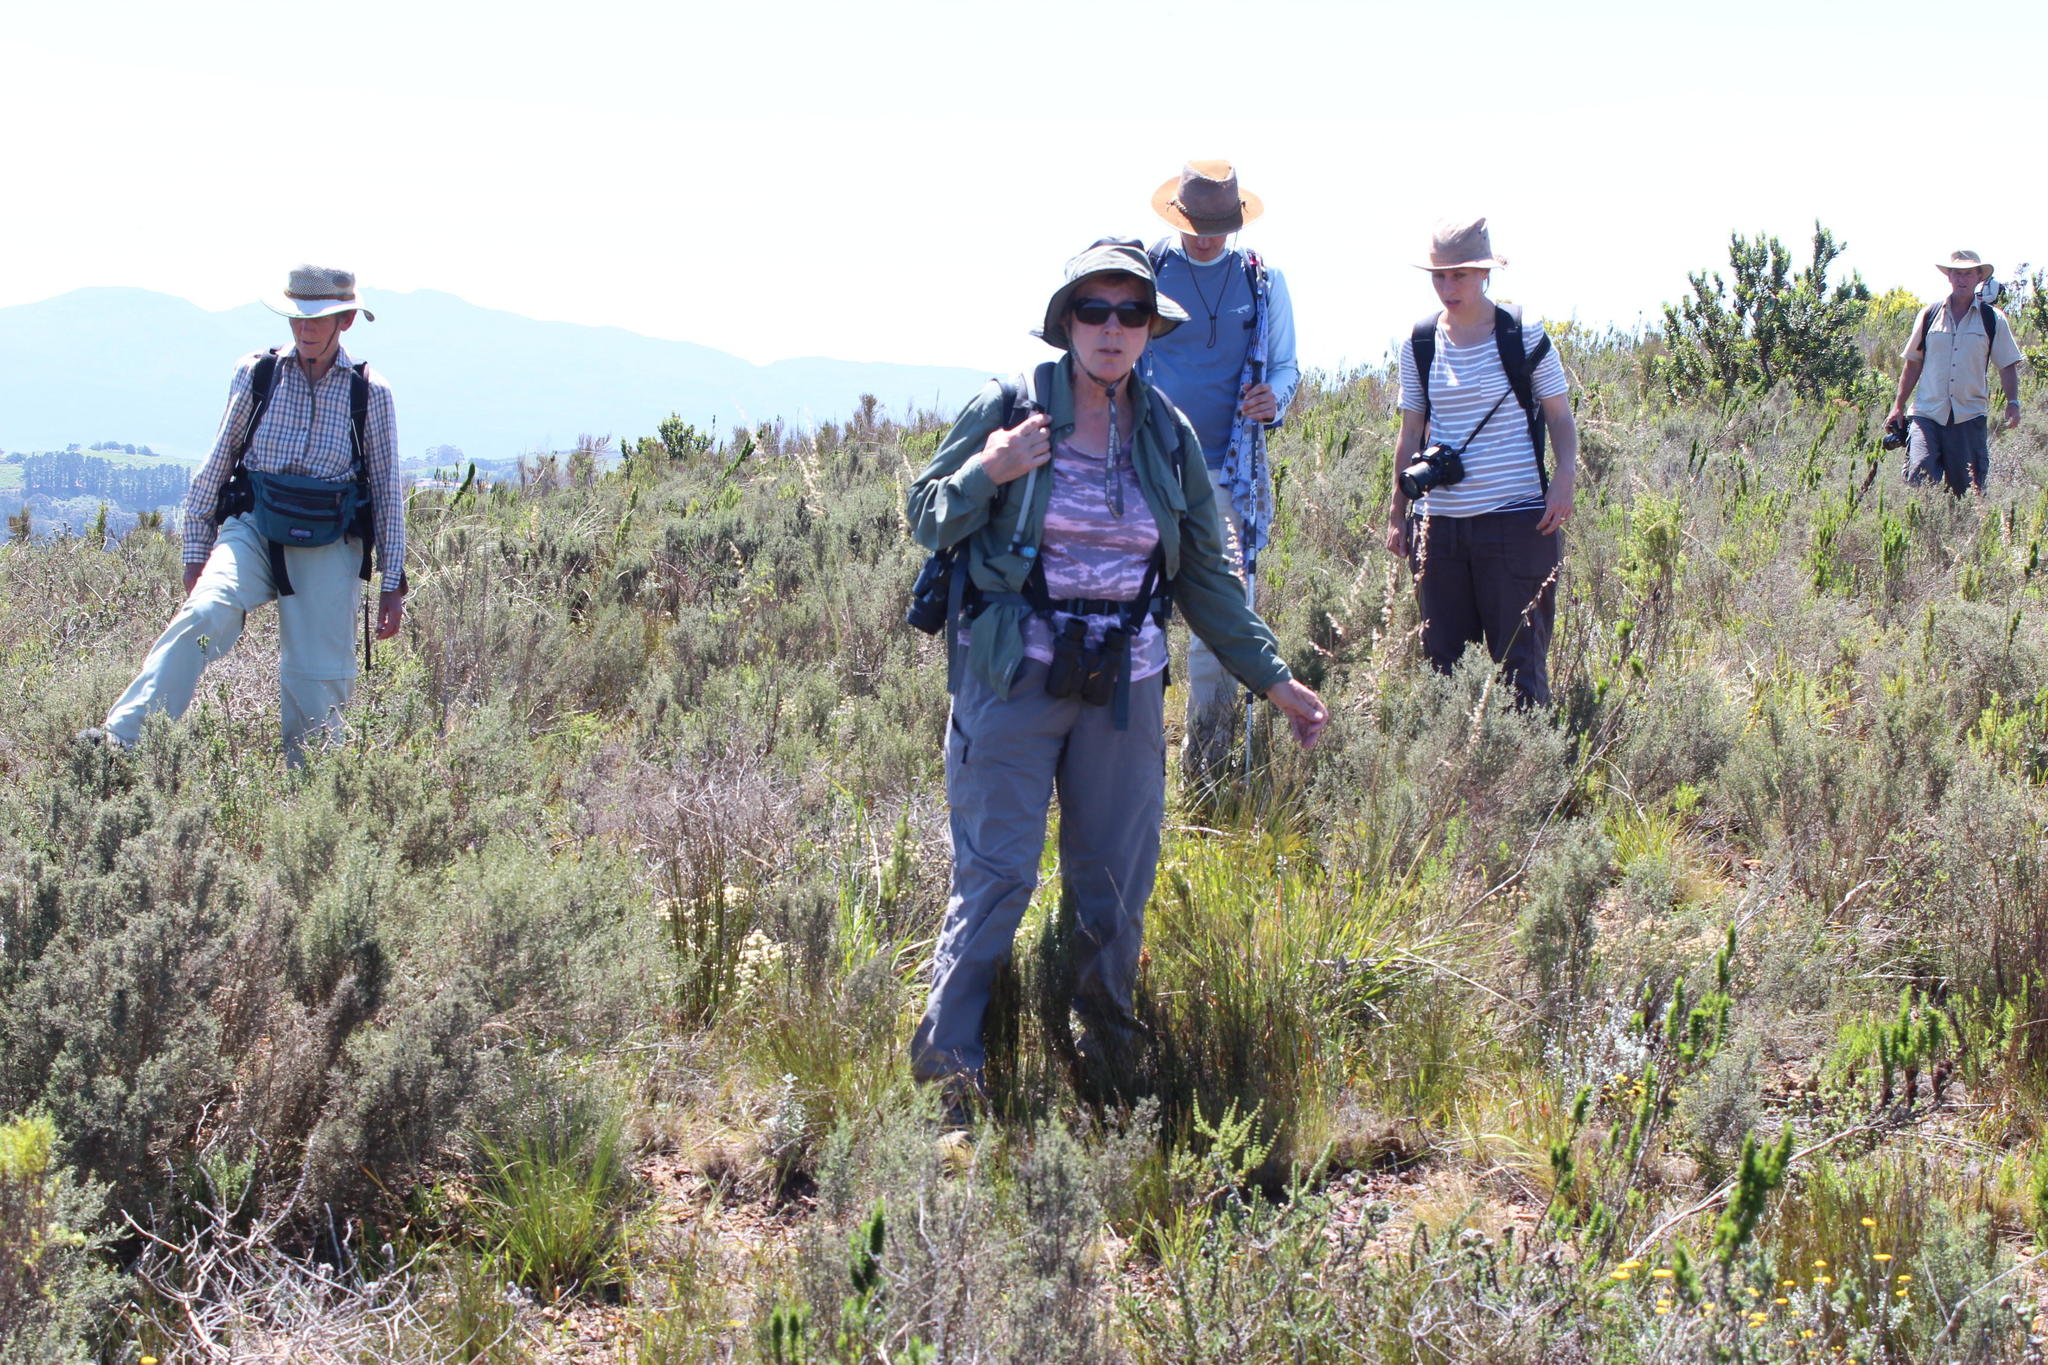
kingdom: Plantae
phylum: Tracheophyta
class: Liliopsida
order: Poales
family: Poaceae
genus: Ehrharta
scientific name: Ehrharta capensis
